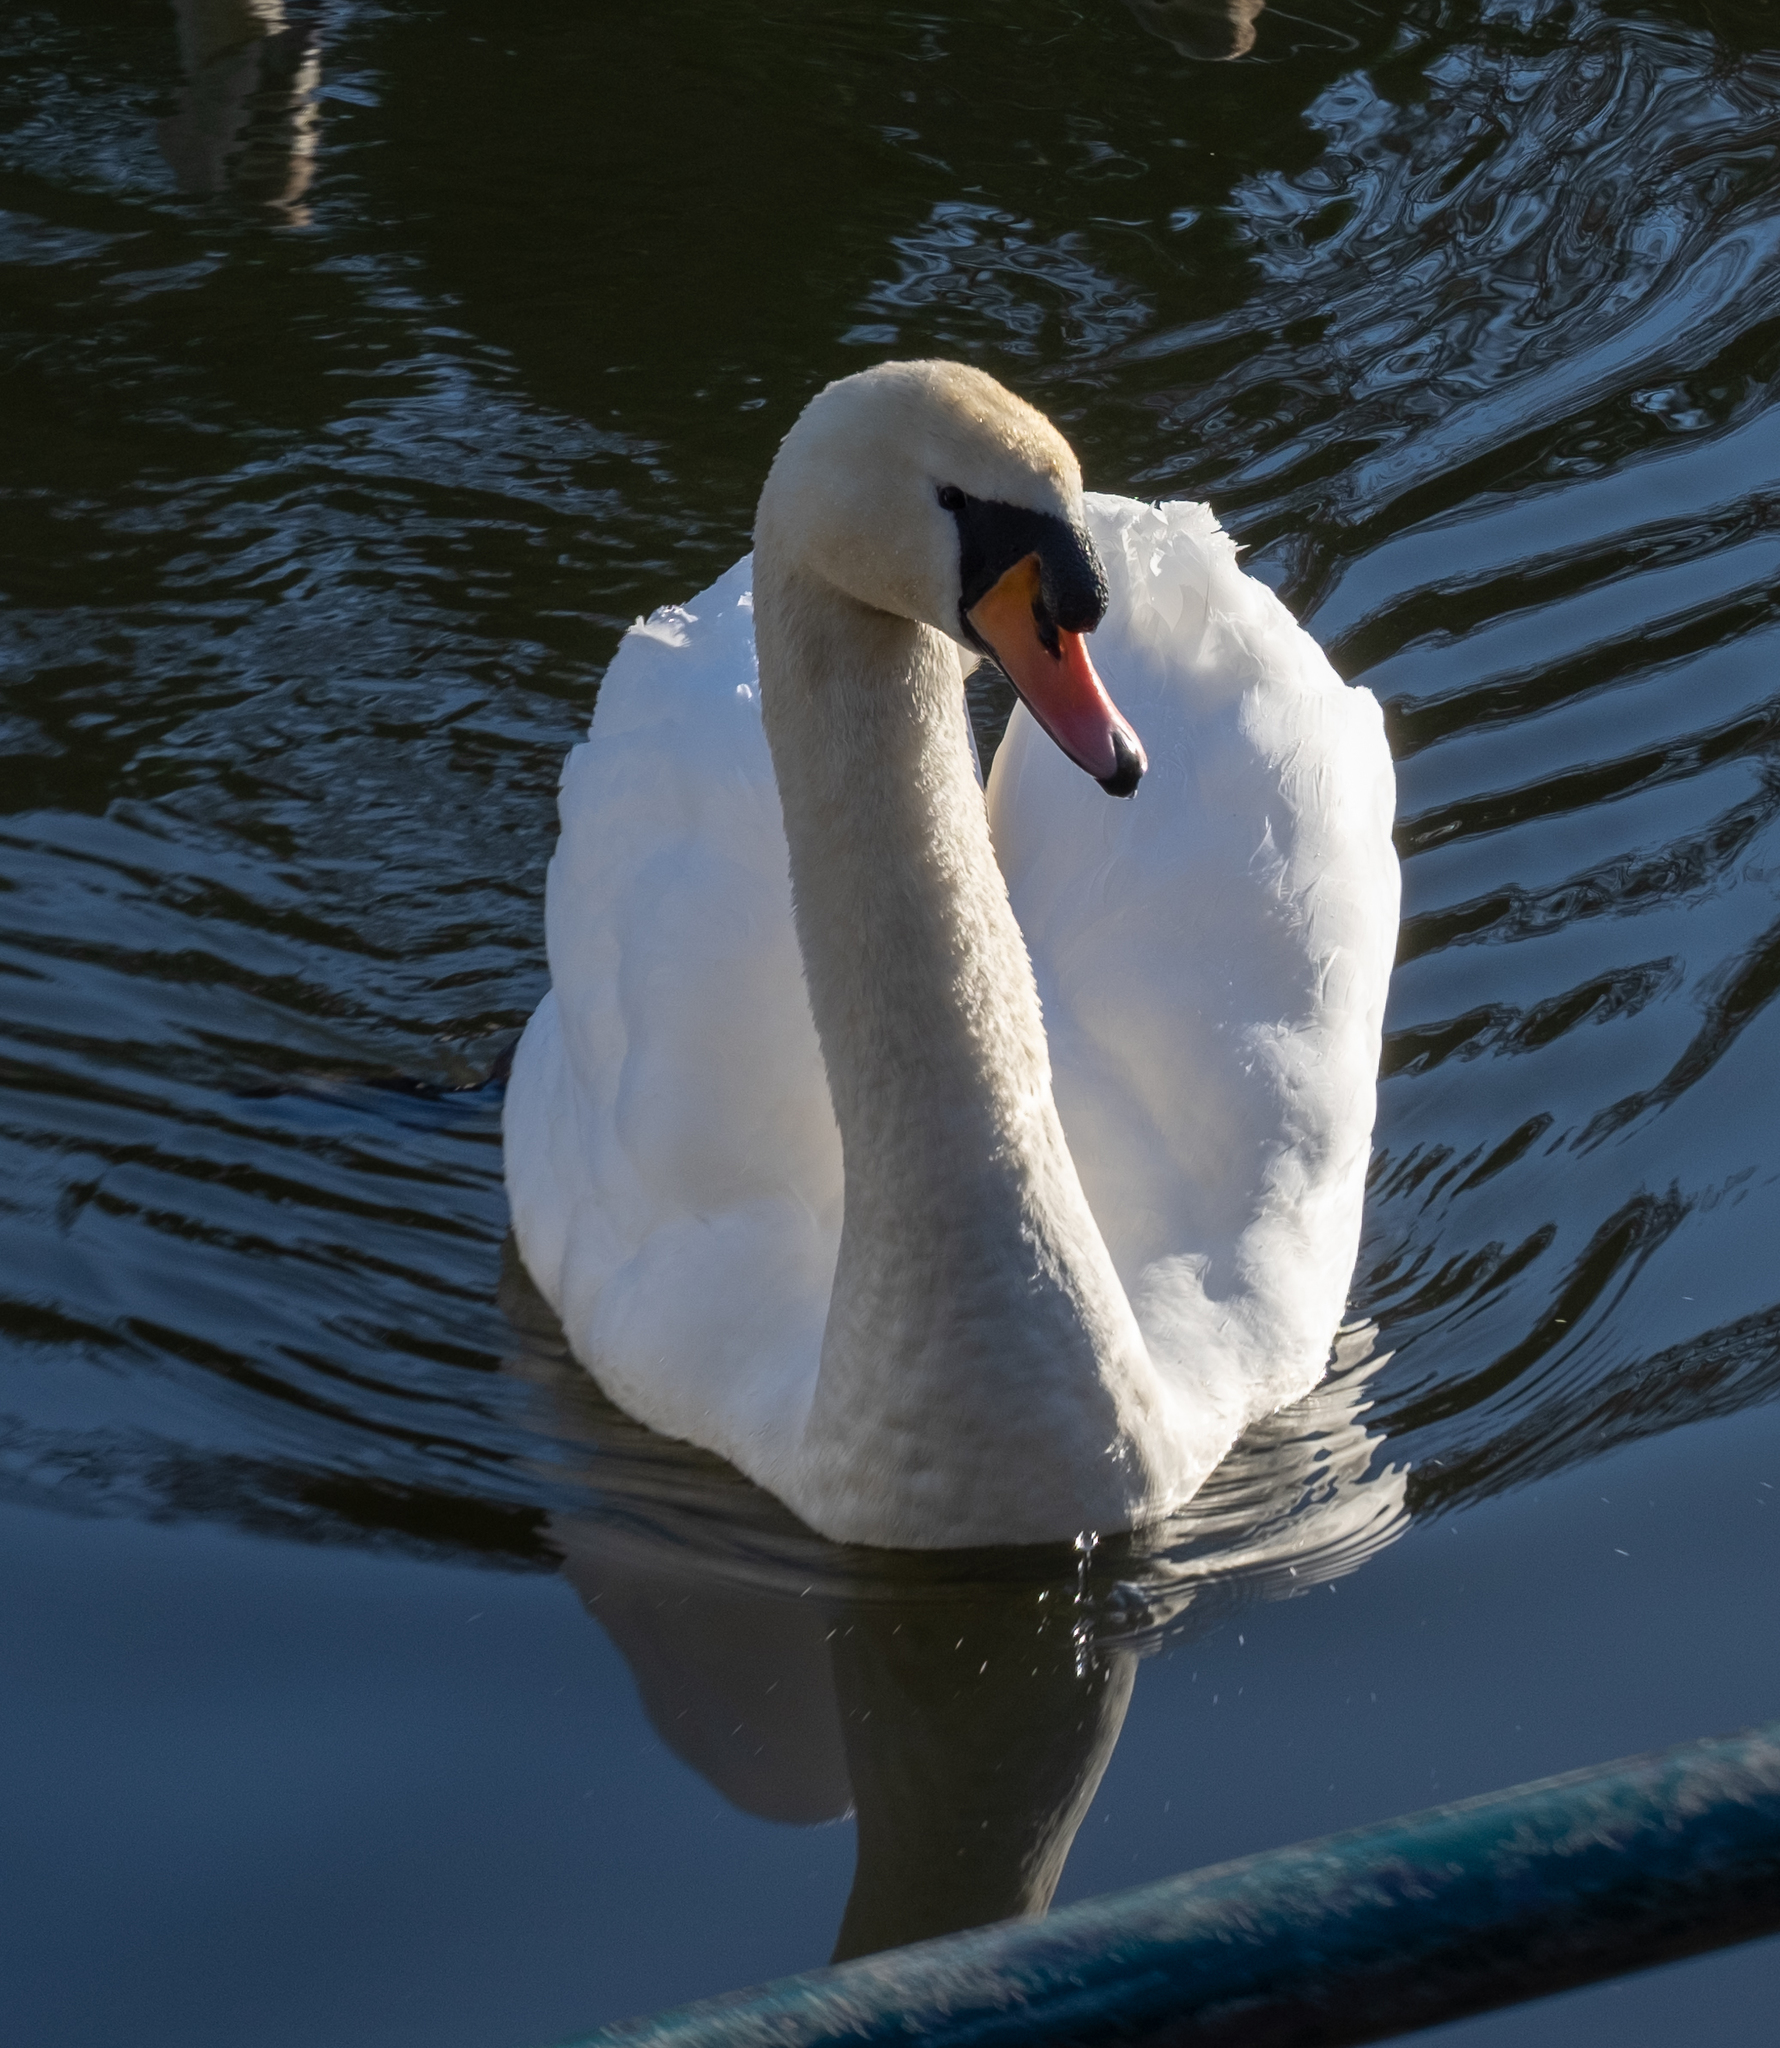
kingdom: Animalia
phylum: Chordata
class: Aves
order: Anseriformes
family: Anatidae
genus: Cygnus
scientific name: Cygnus olor
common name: Mute swan
